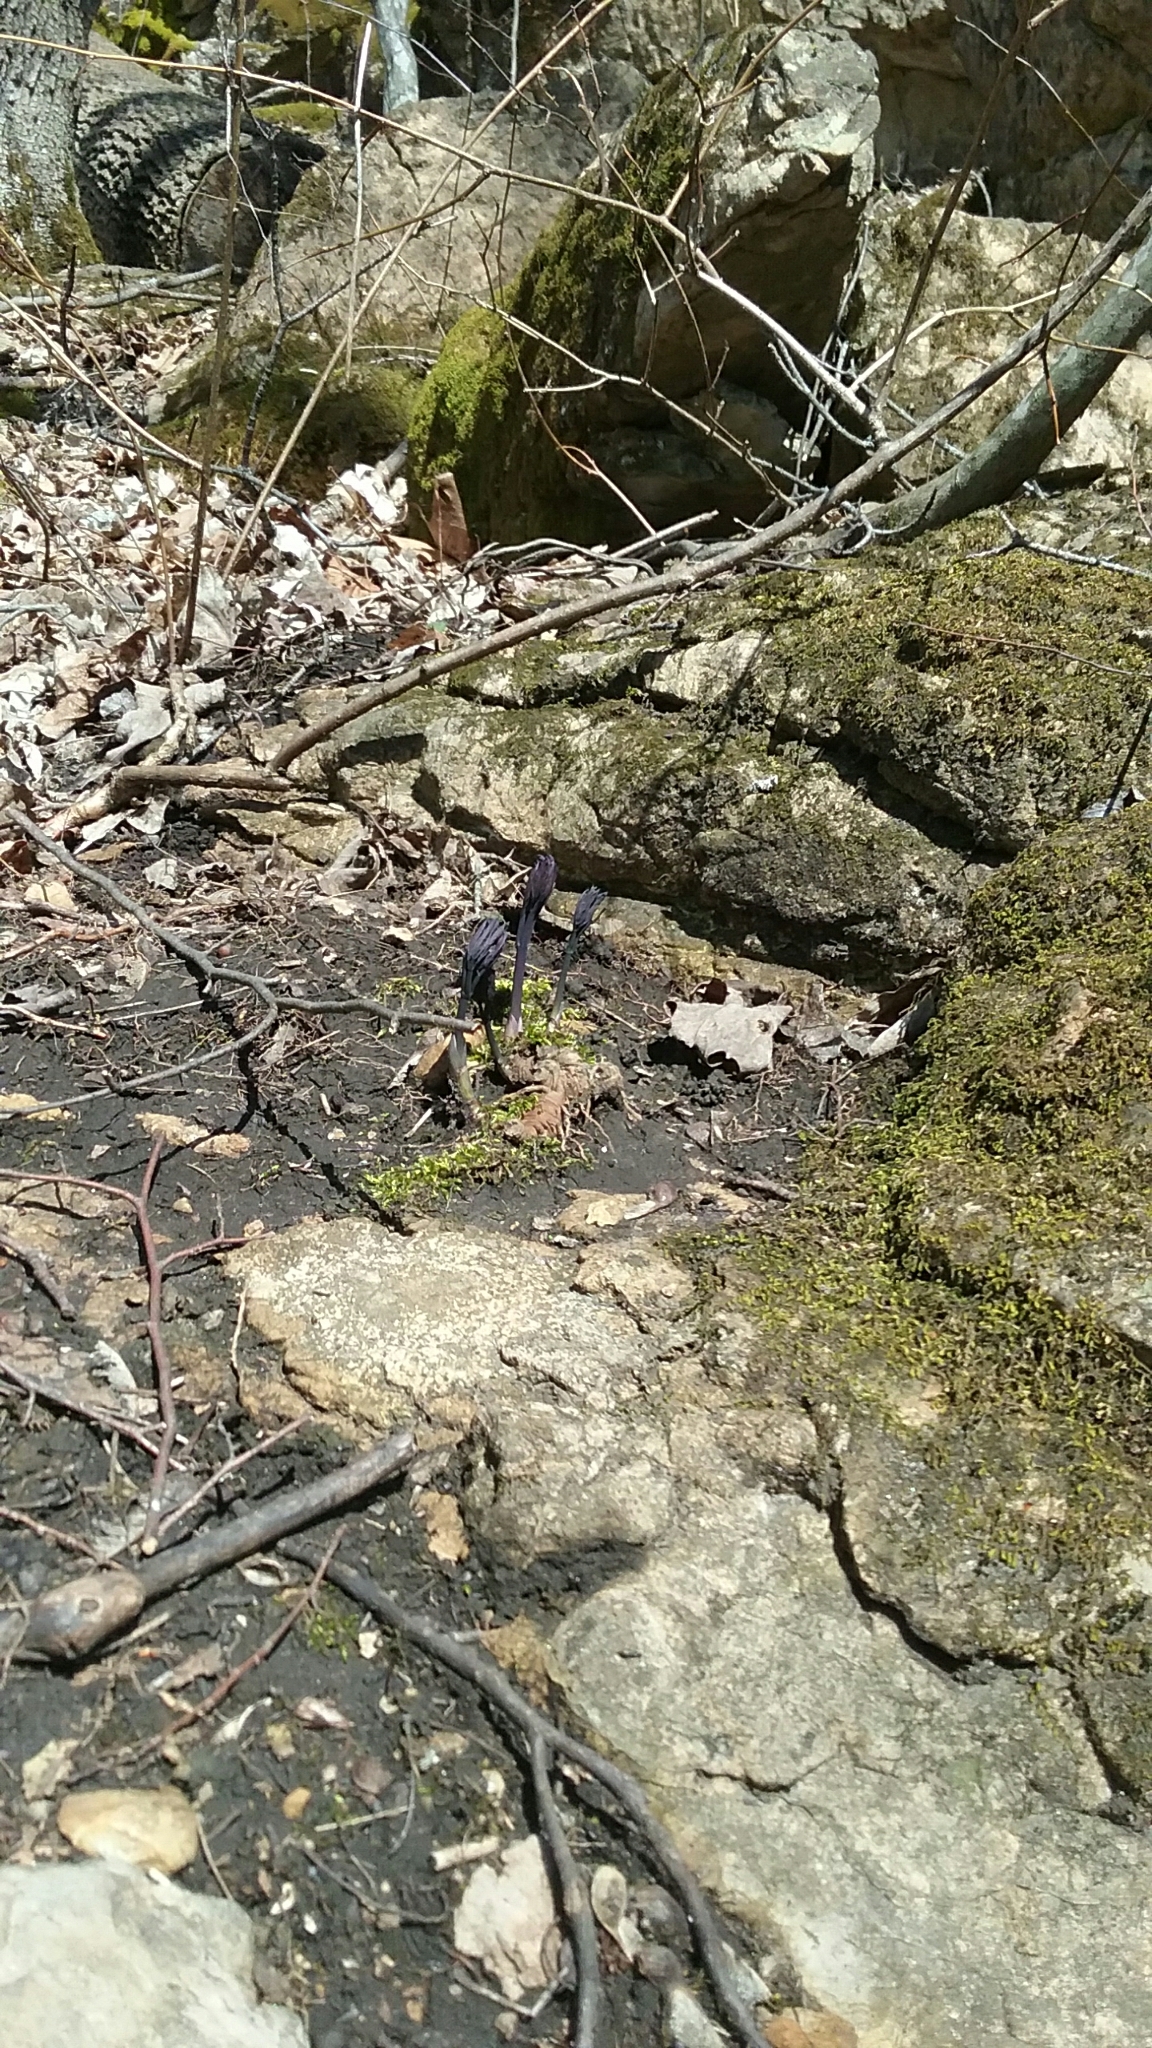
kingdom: Plantae
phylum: Tracheophyta
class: Magnoliopsida
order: Ranunculales
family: Berberidaceae
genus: Caulophyllum
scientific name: Caulophyllum giganteum
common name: Blue cohosh
